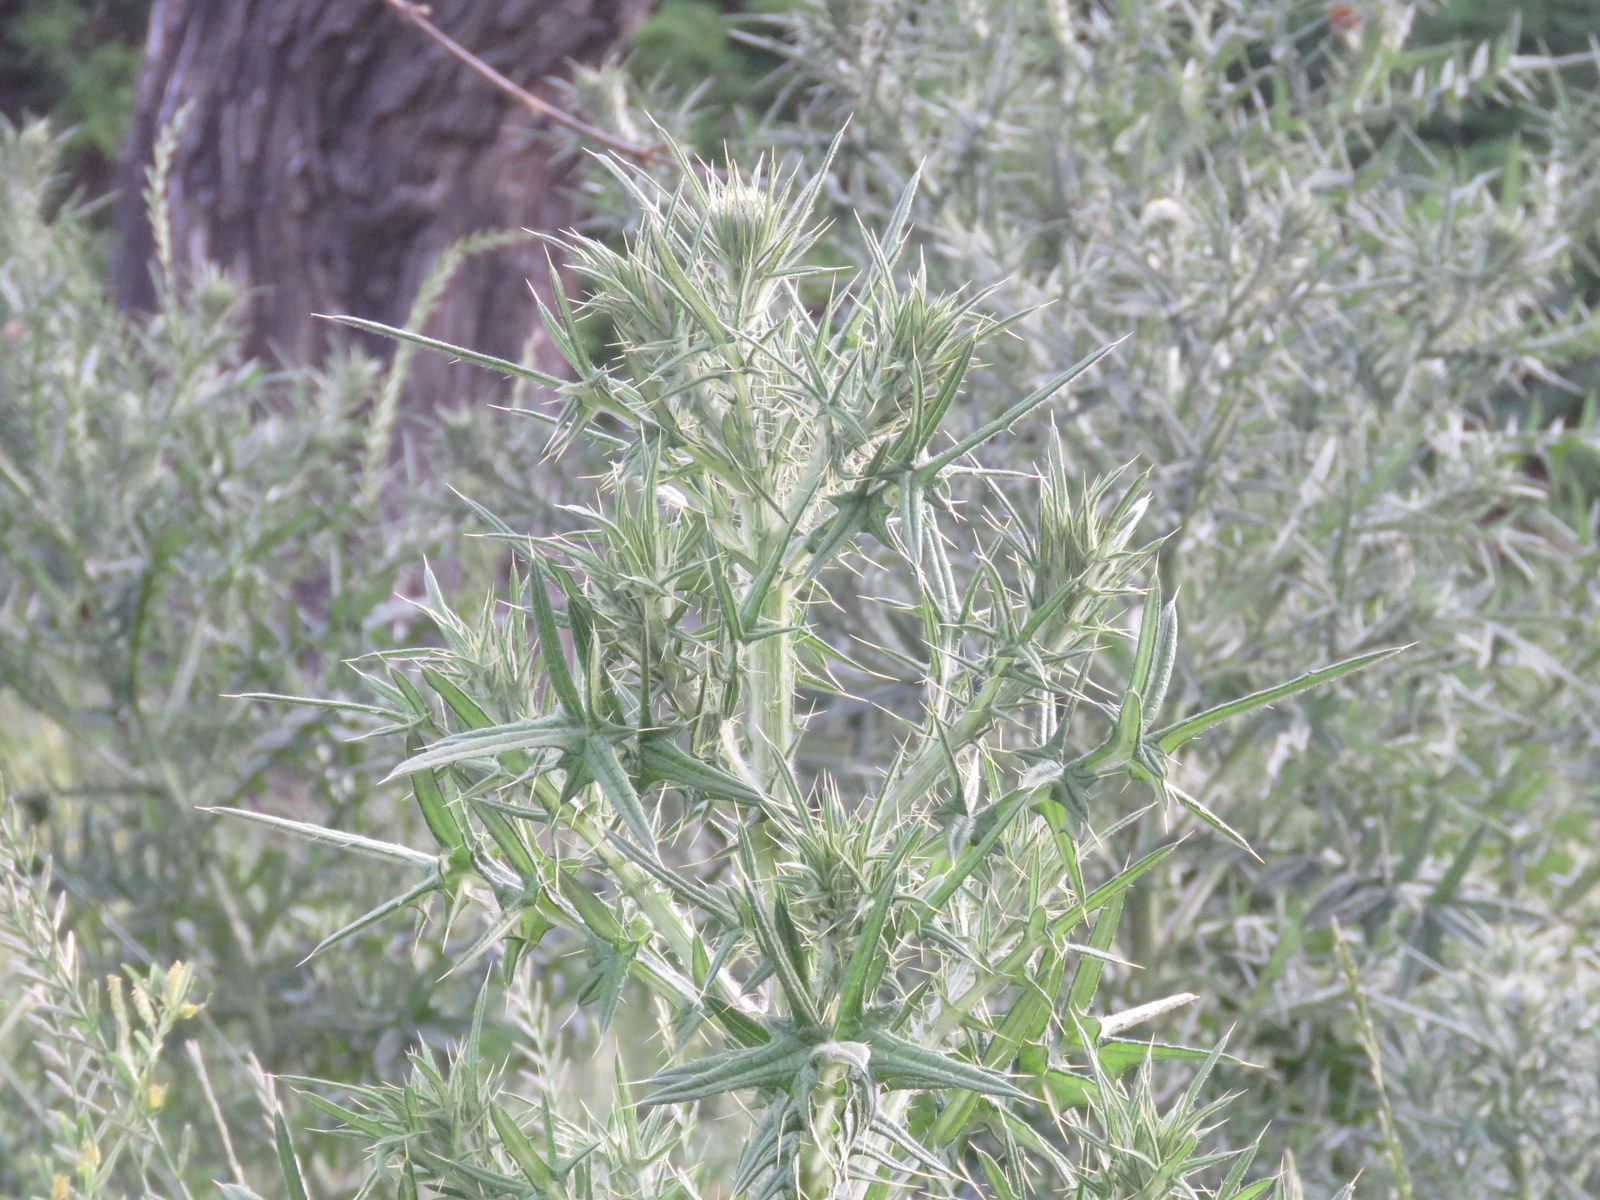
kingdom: Plantae
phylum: Tracheophyta
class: Magnoliopsida
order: Asterales
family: Asteraceae
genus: Cirsium
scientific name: Cirsium vulgare
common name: Bull thistle
